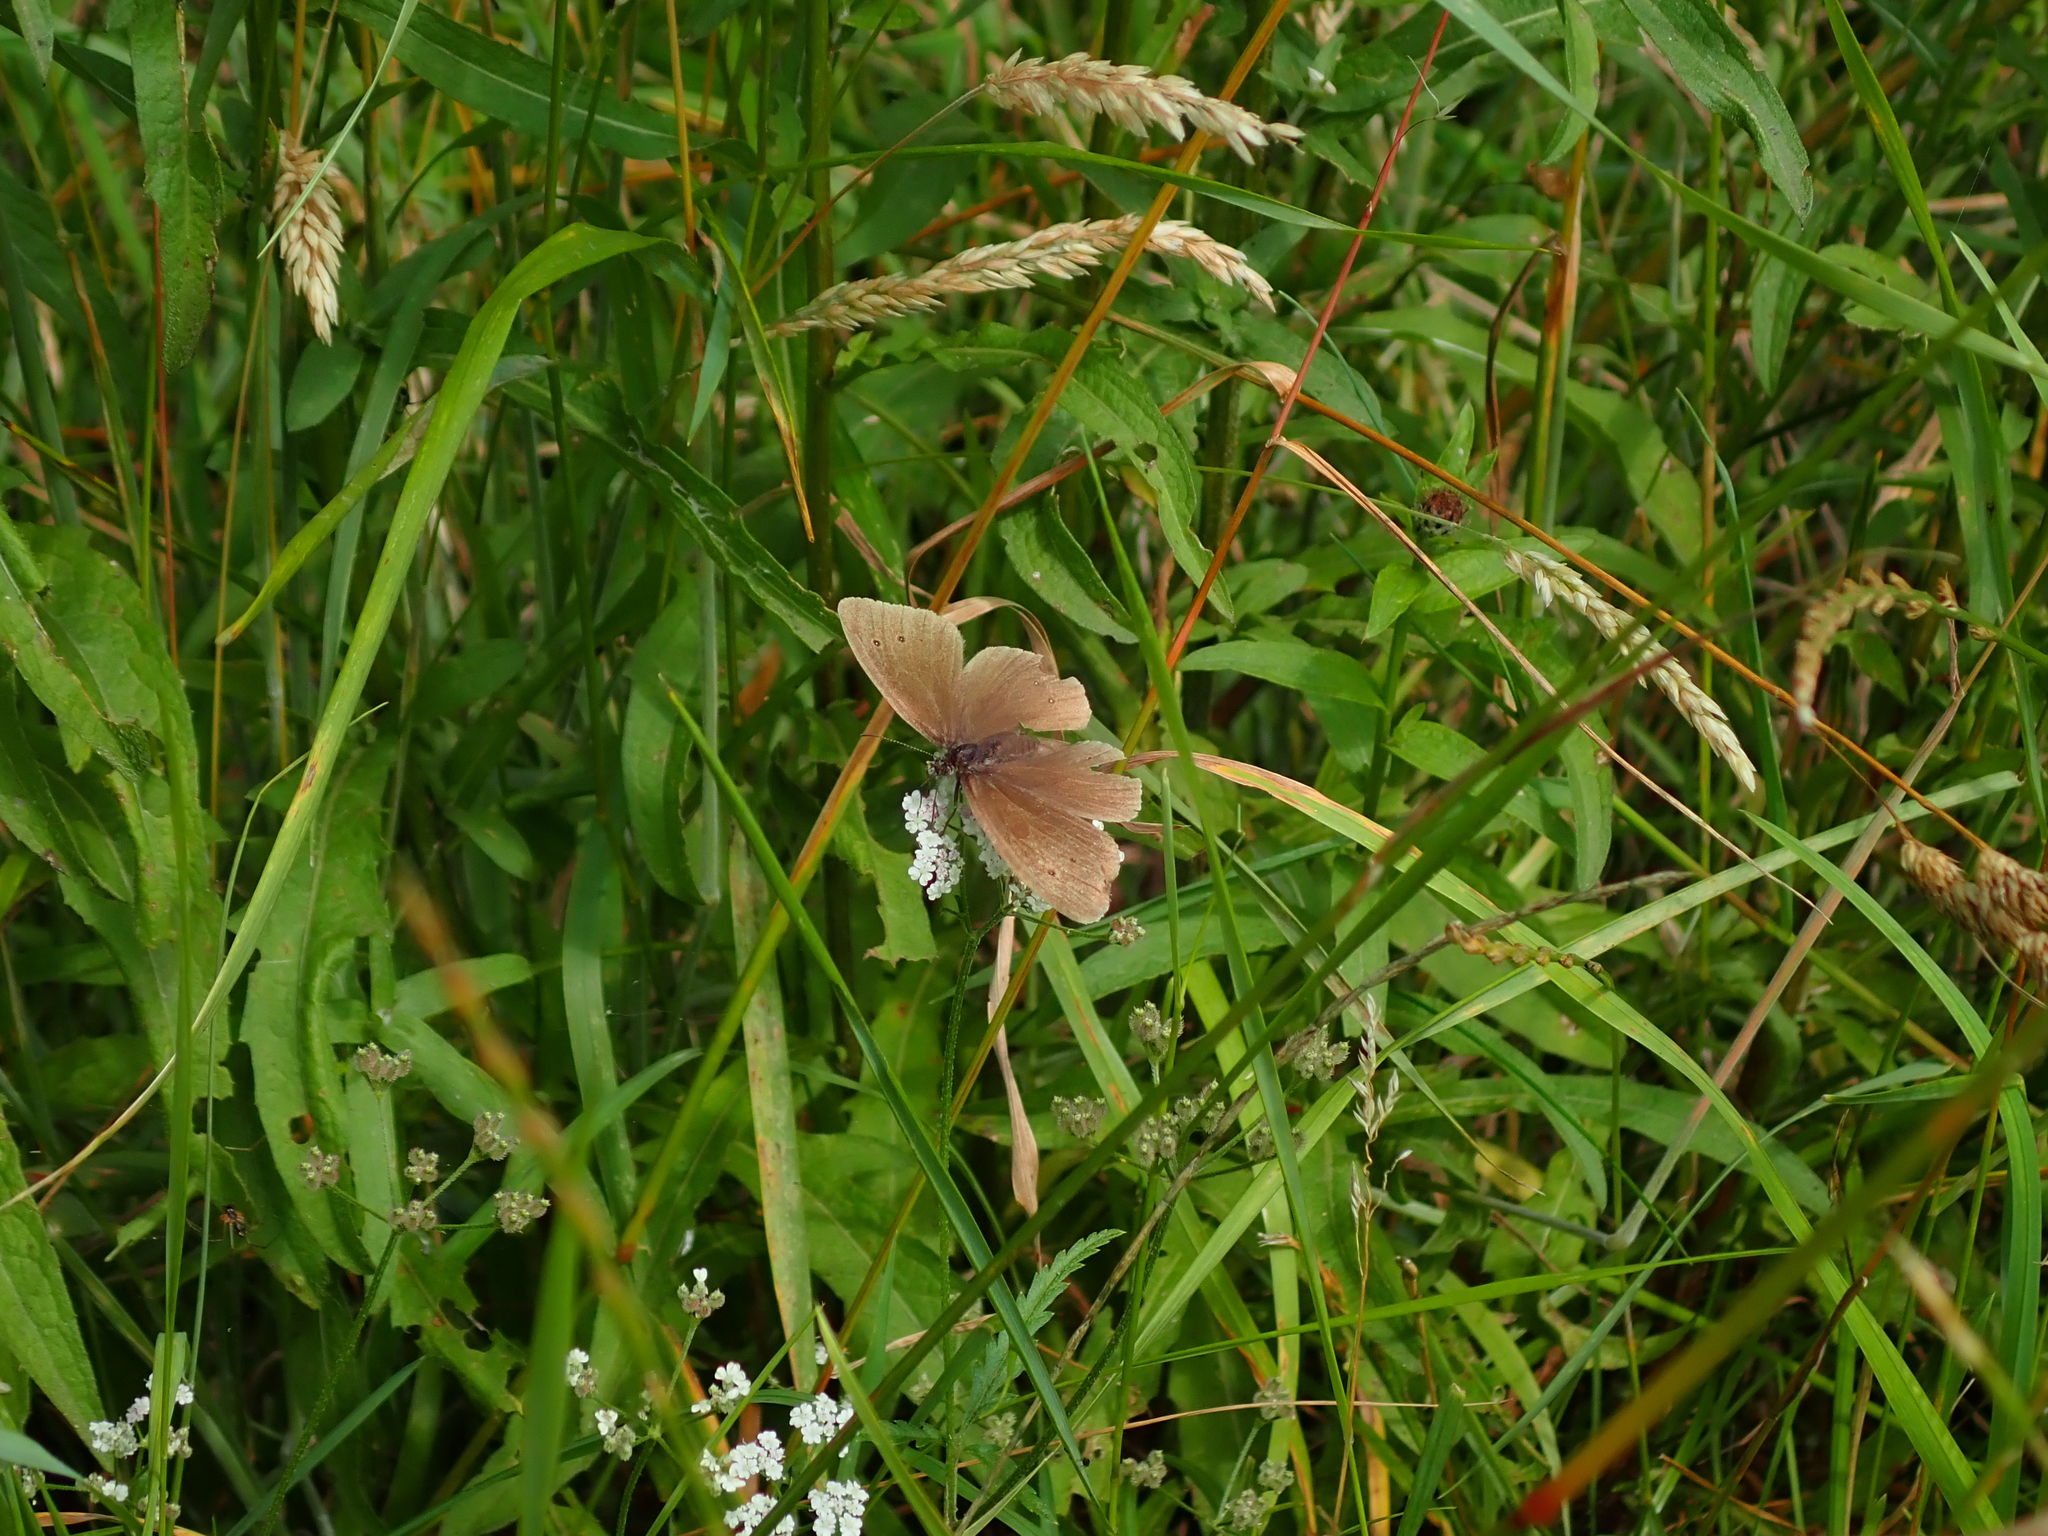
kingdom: Animalia
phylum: Arthropoda
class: Insecta
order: Lepidoptera
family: Nymphalidae
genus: Aphantopus
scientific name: Aphantopus hyperantus
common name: Ringlet
